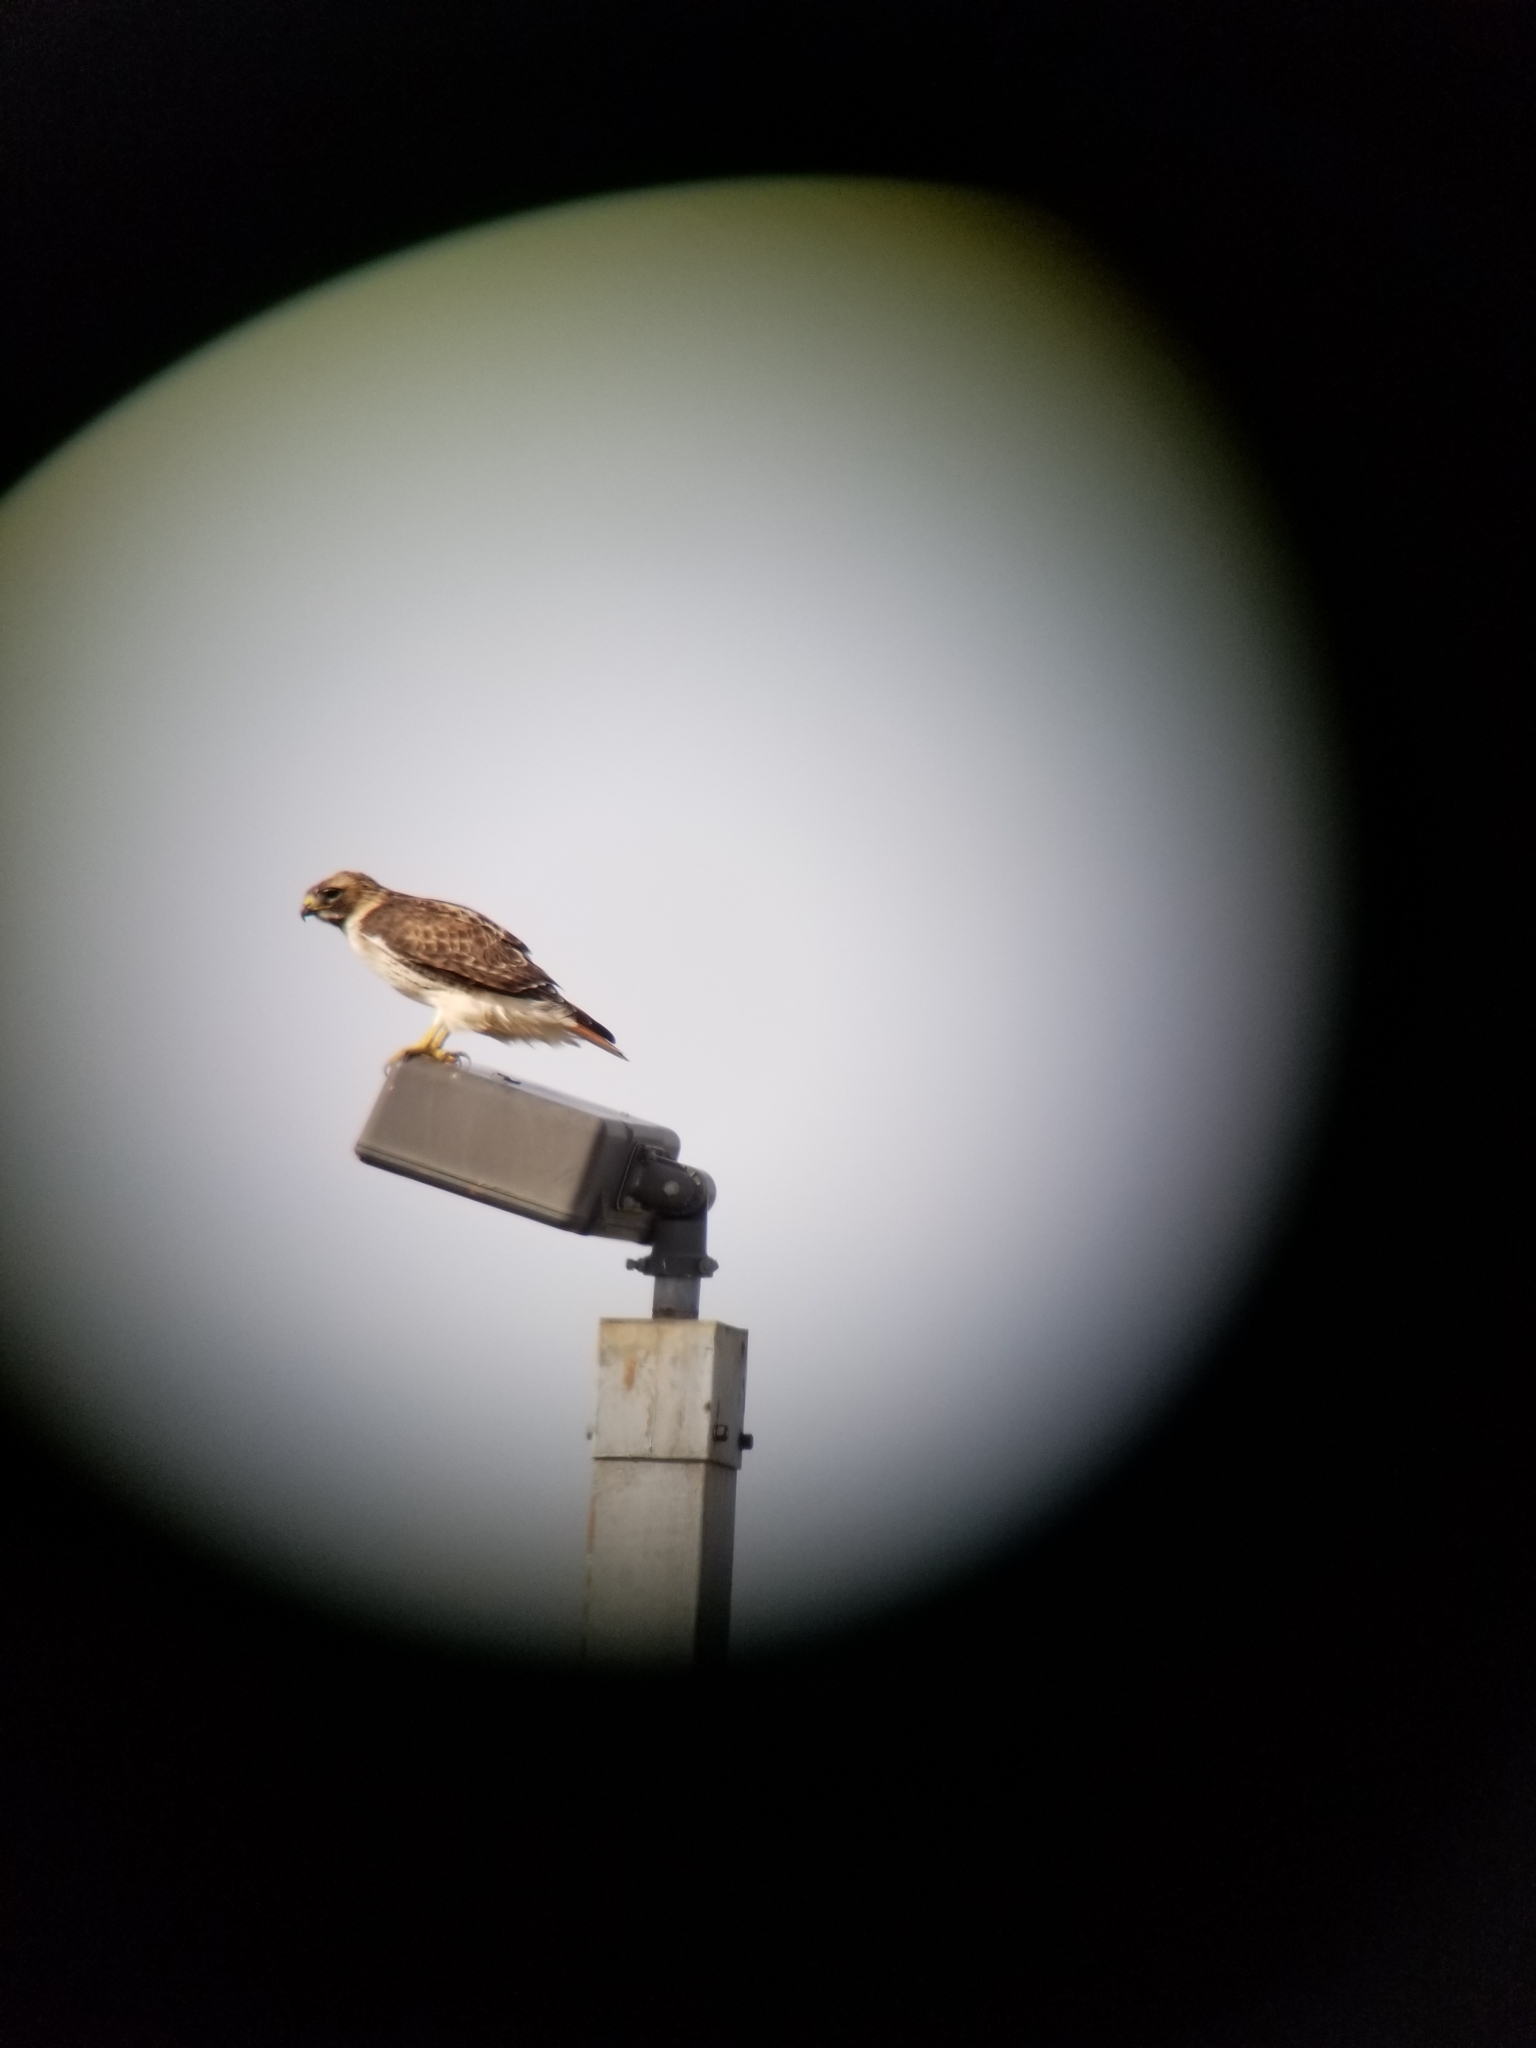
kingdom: Animalia
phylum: Chordata
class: Aves
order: Accipitriformes
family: Accipitridae
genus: Buteo
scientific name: Buteo jamaicensis
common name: Red-tailed hawk
